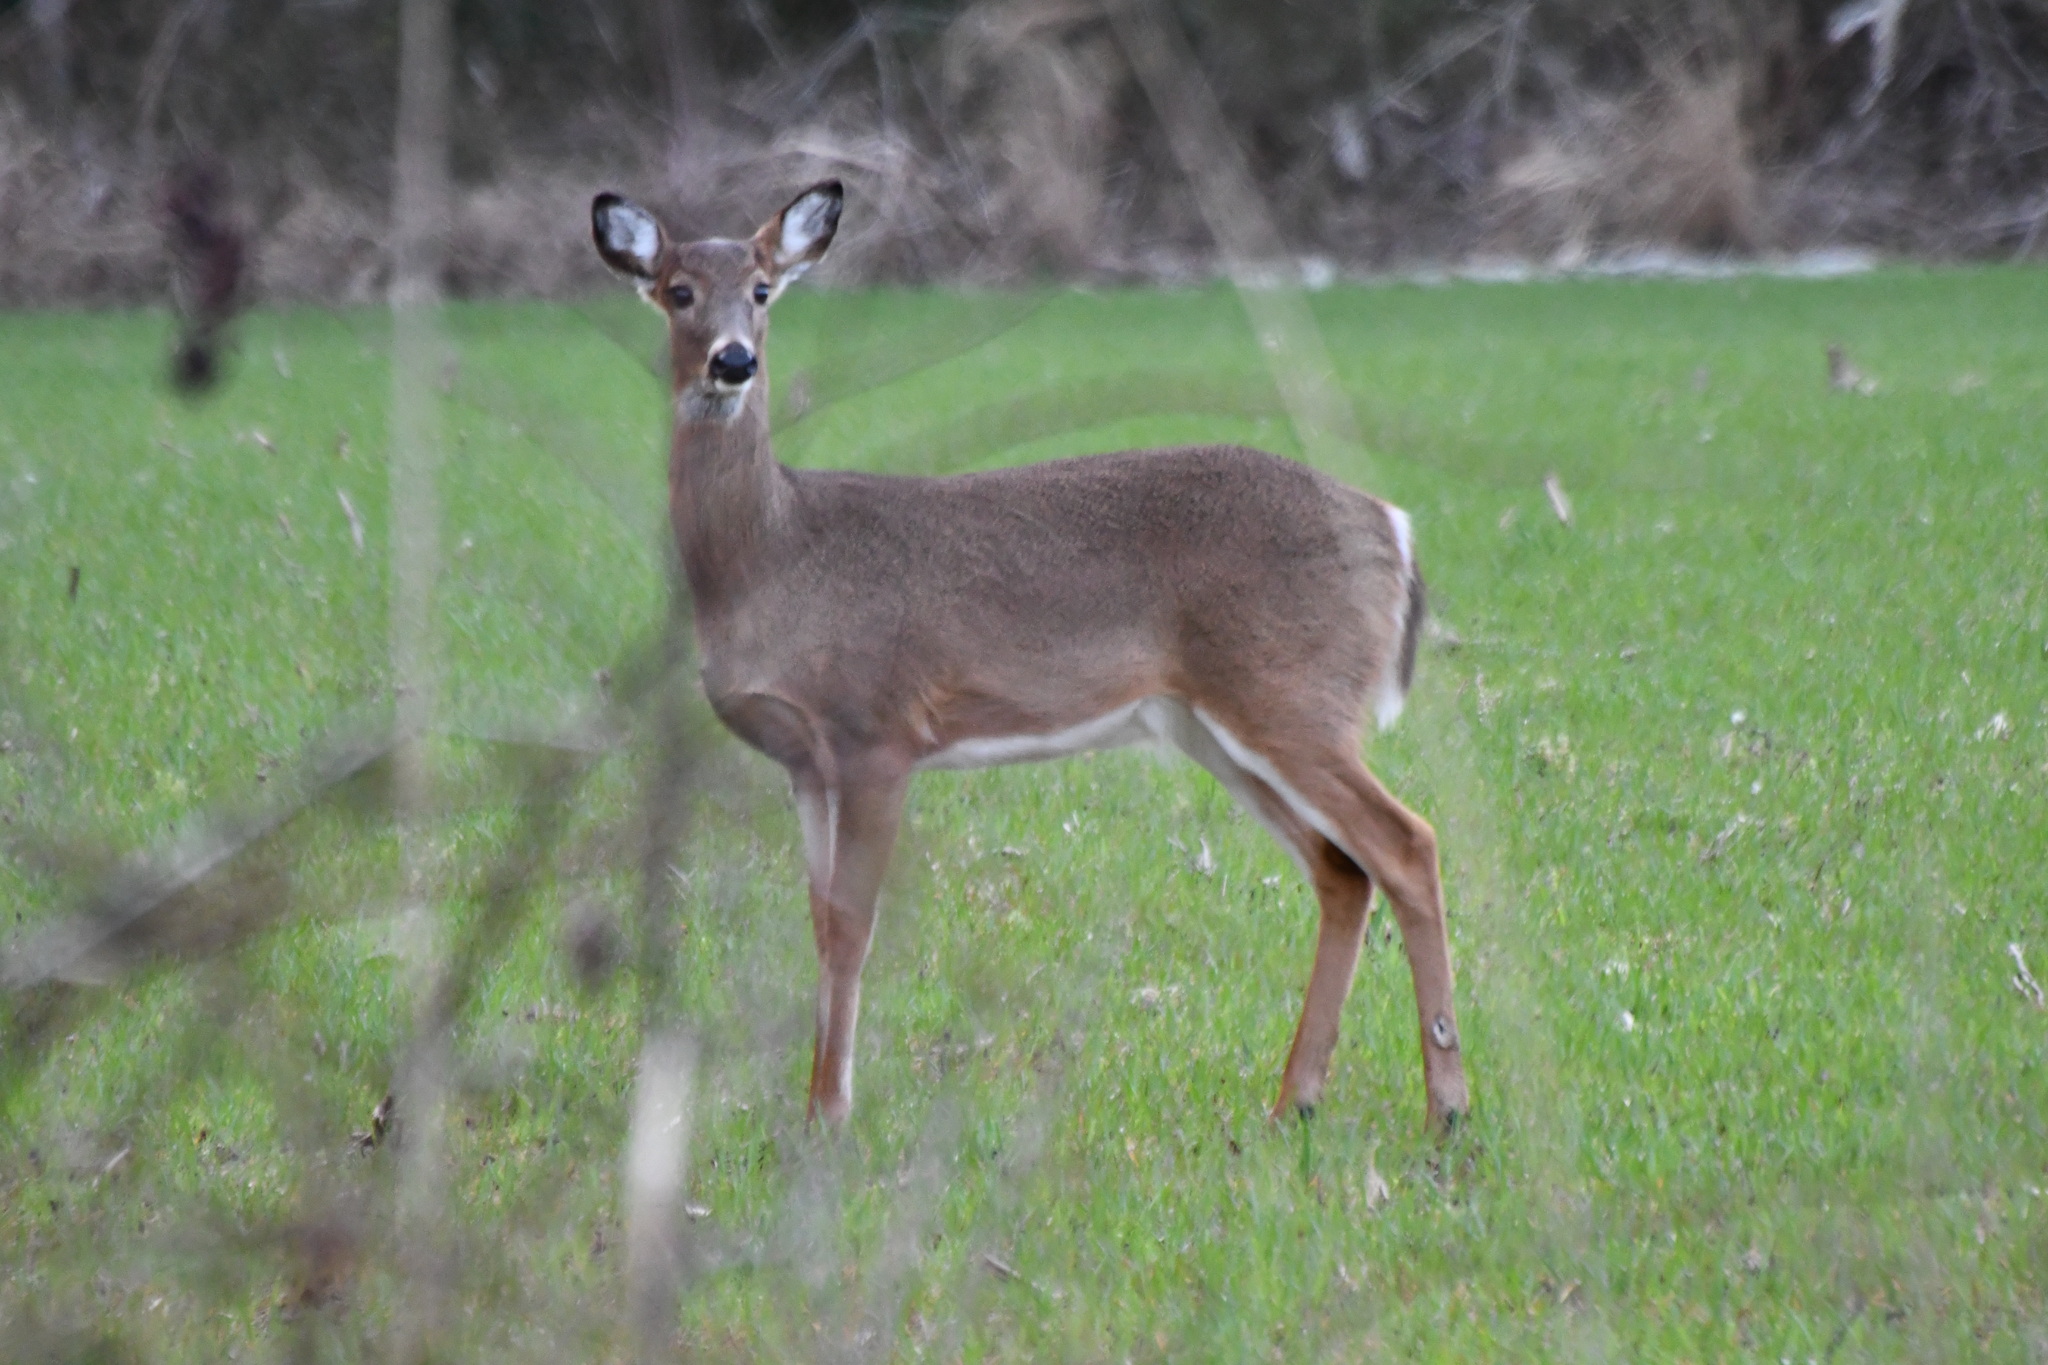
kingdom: Animalia
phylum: Chordata
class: Mammalia
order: Artiodactyla
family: Cervidae
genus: Odocoileus
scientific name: Odocoileus virginianus
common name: White-tailed deer
